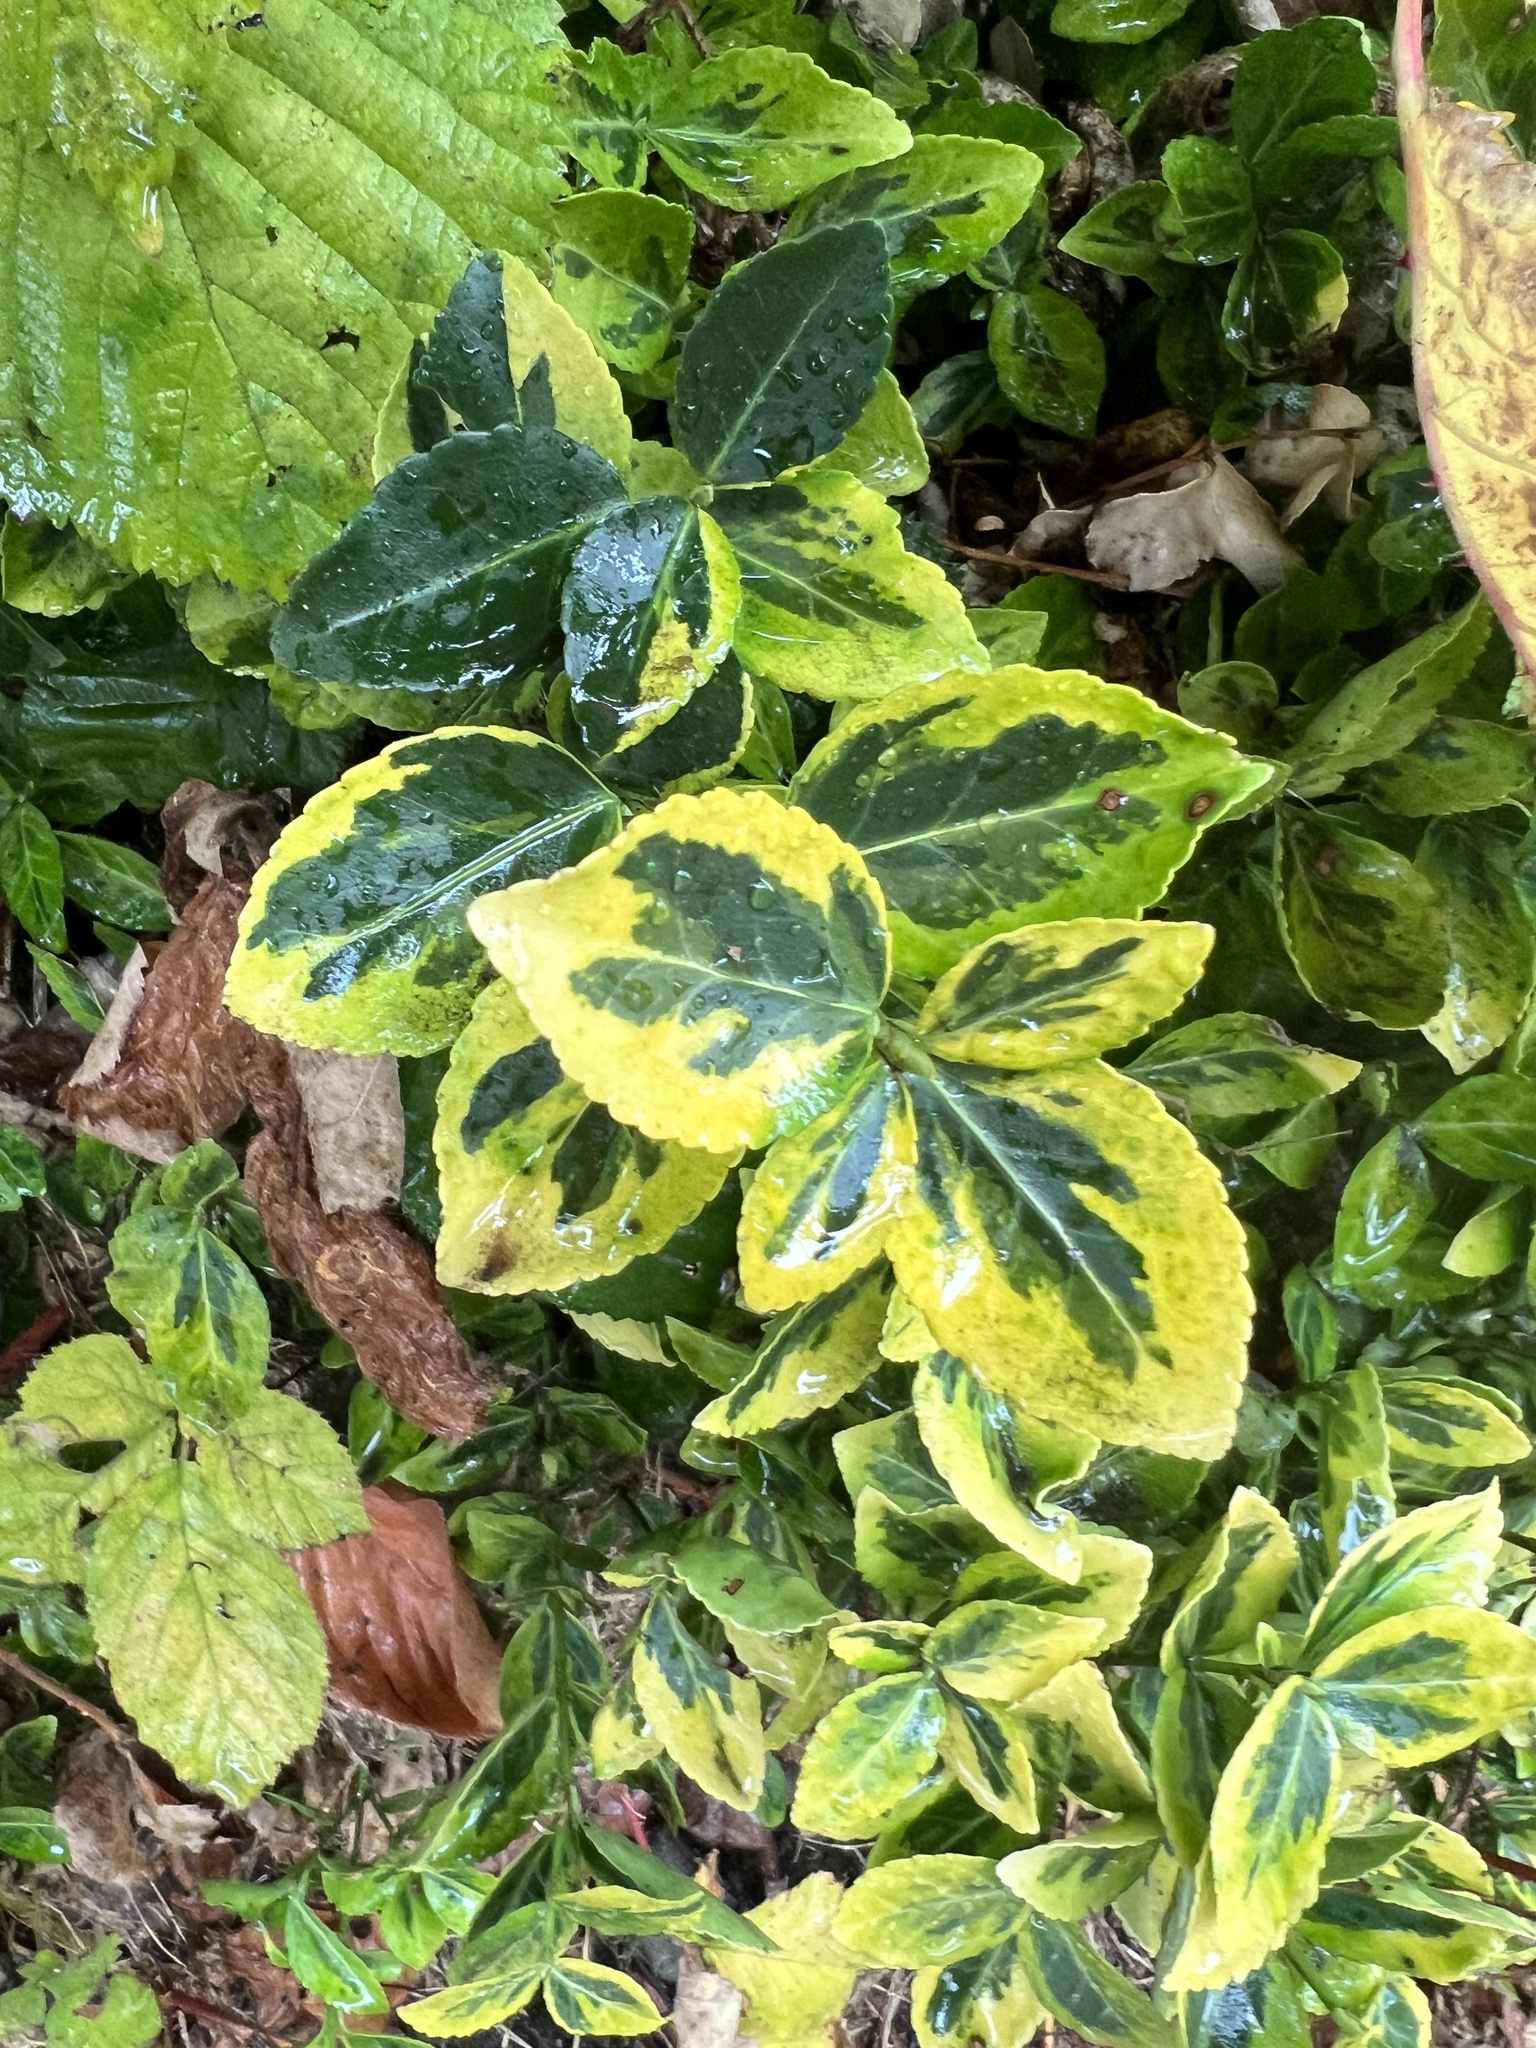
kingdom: Plantae
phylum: Tracheophyta
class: Magnoliopsida
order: Celastrales
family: Celastraceae
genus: Euonymus
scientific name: Euonymus fortunei
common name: Climbing euonymus
